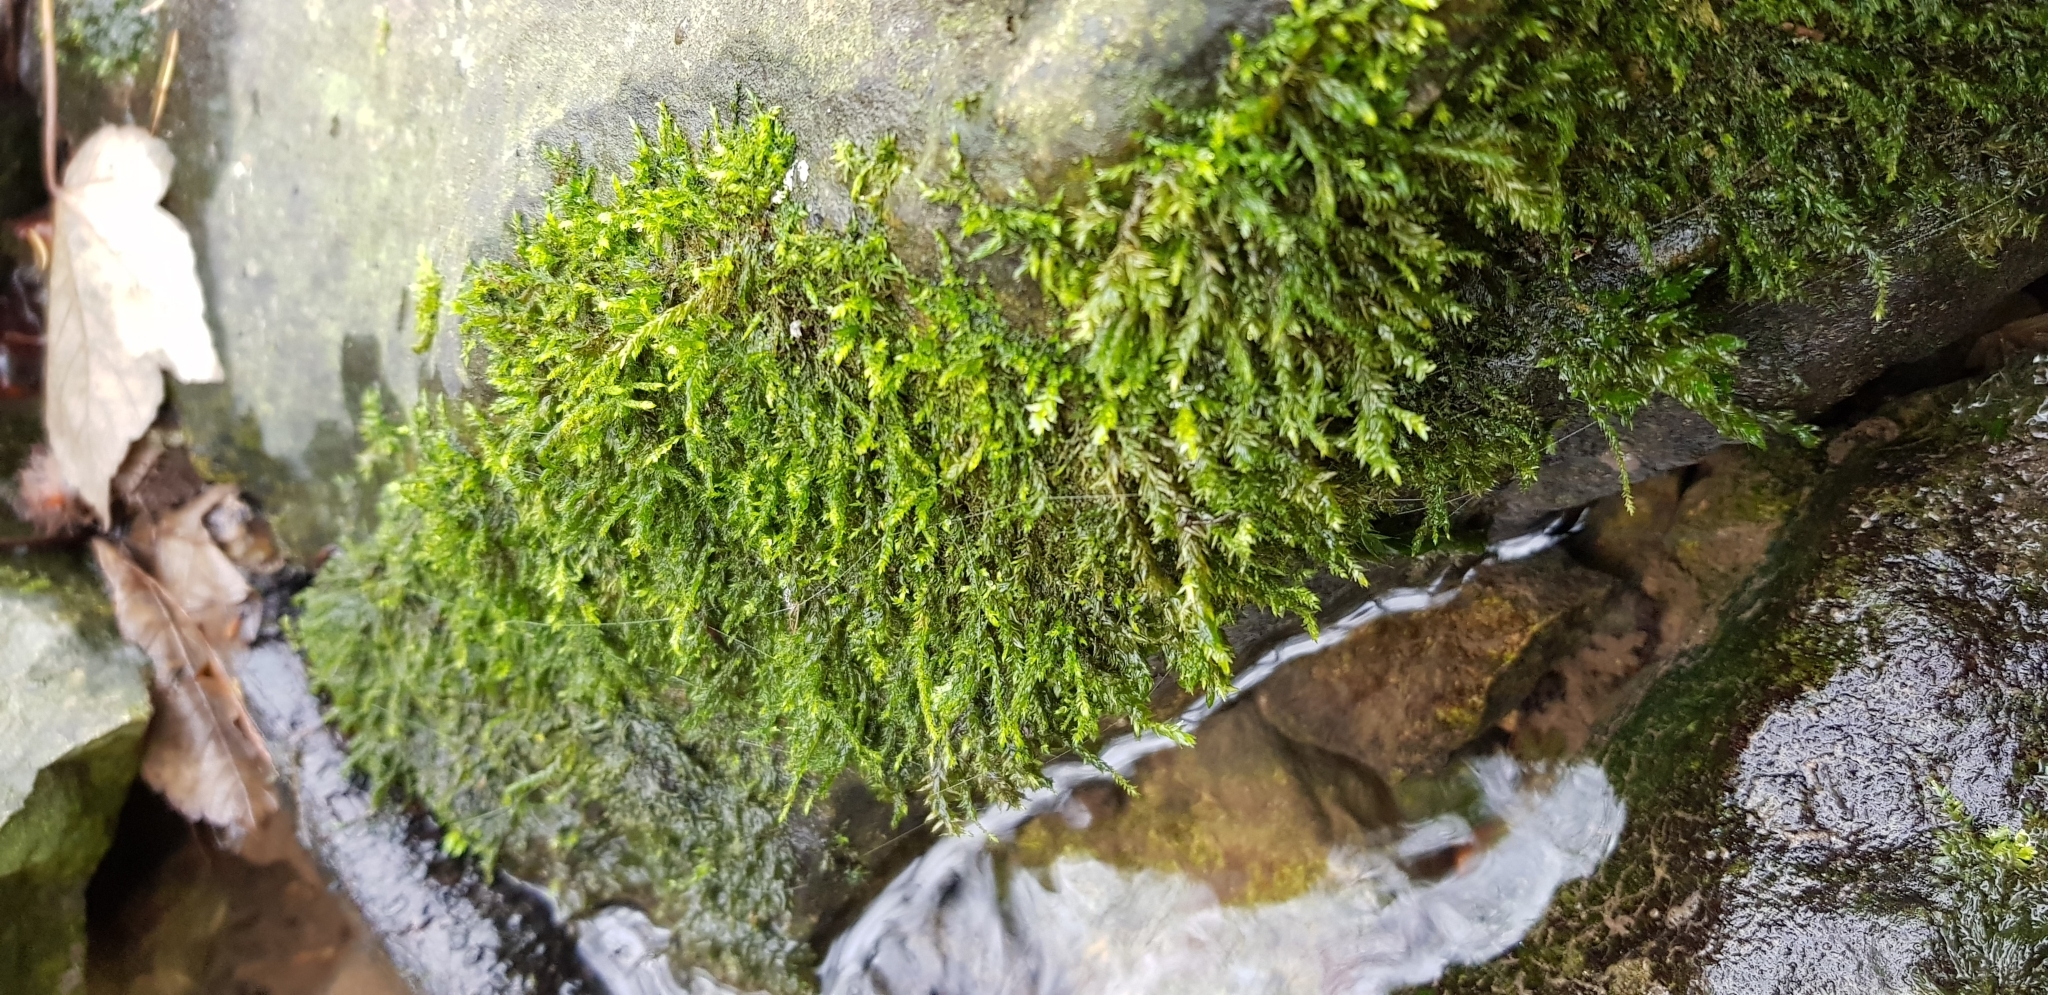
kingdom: Plantae
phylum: Bryophyta
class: Bryopsida
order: Hypnales
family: Amblystegiaceae
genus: Hygrohypnum
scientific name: Hygrohypnum luridum
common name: Drab brook moss
